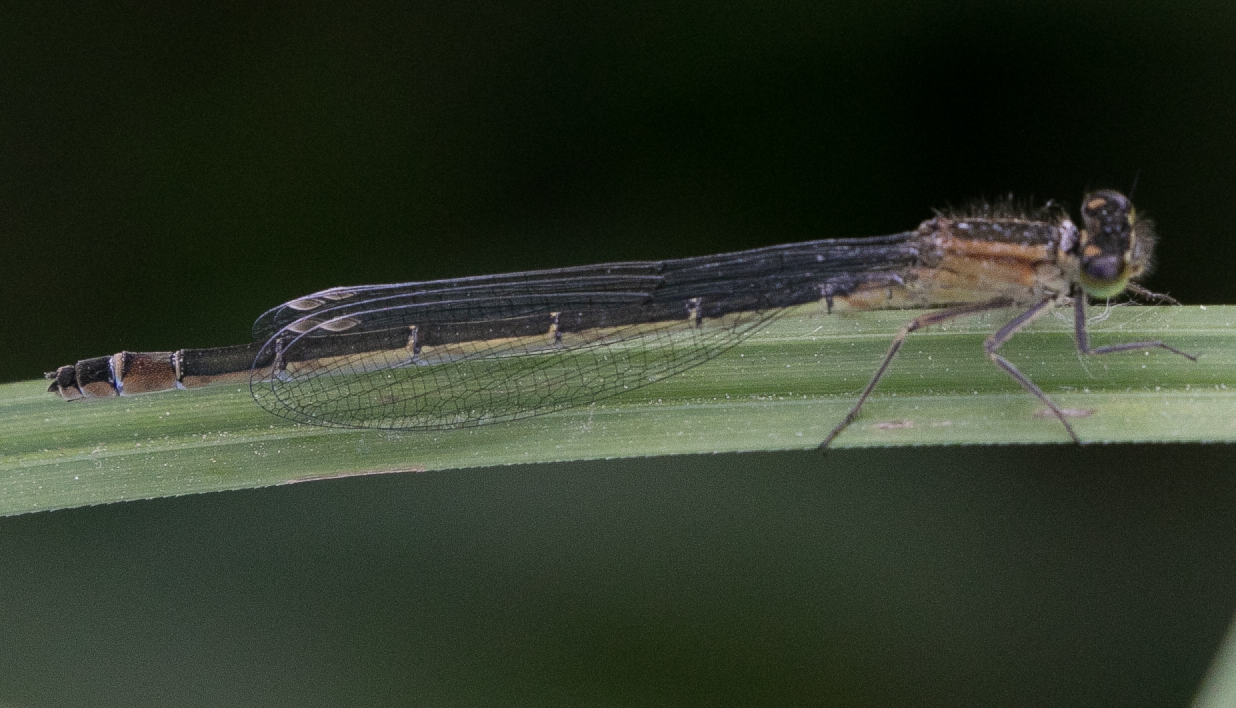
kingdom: Animalia
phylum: Arthropoda
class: Insecta
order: Odonata
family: Coenagrionidae
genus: Ischnura
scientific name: Ischnura elegans
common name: Blue-tailed damselfly
